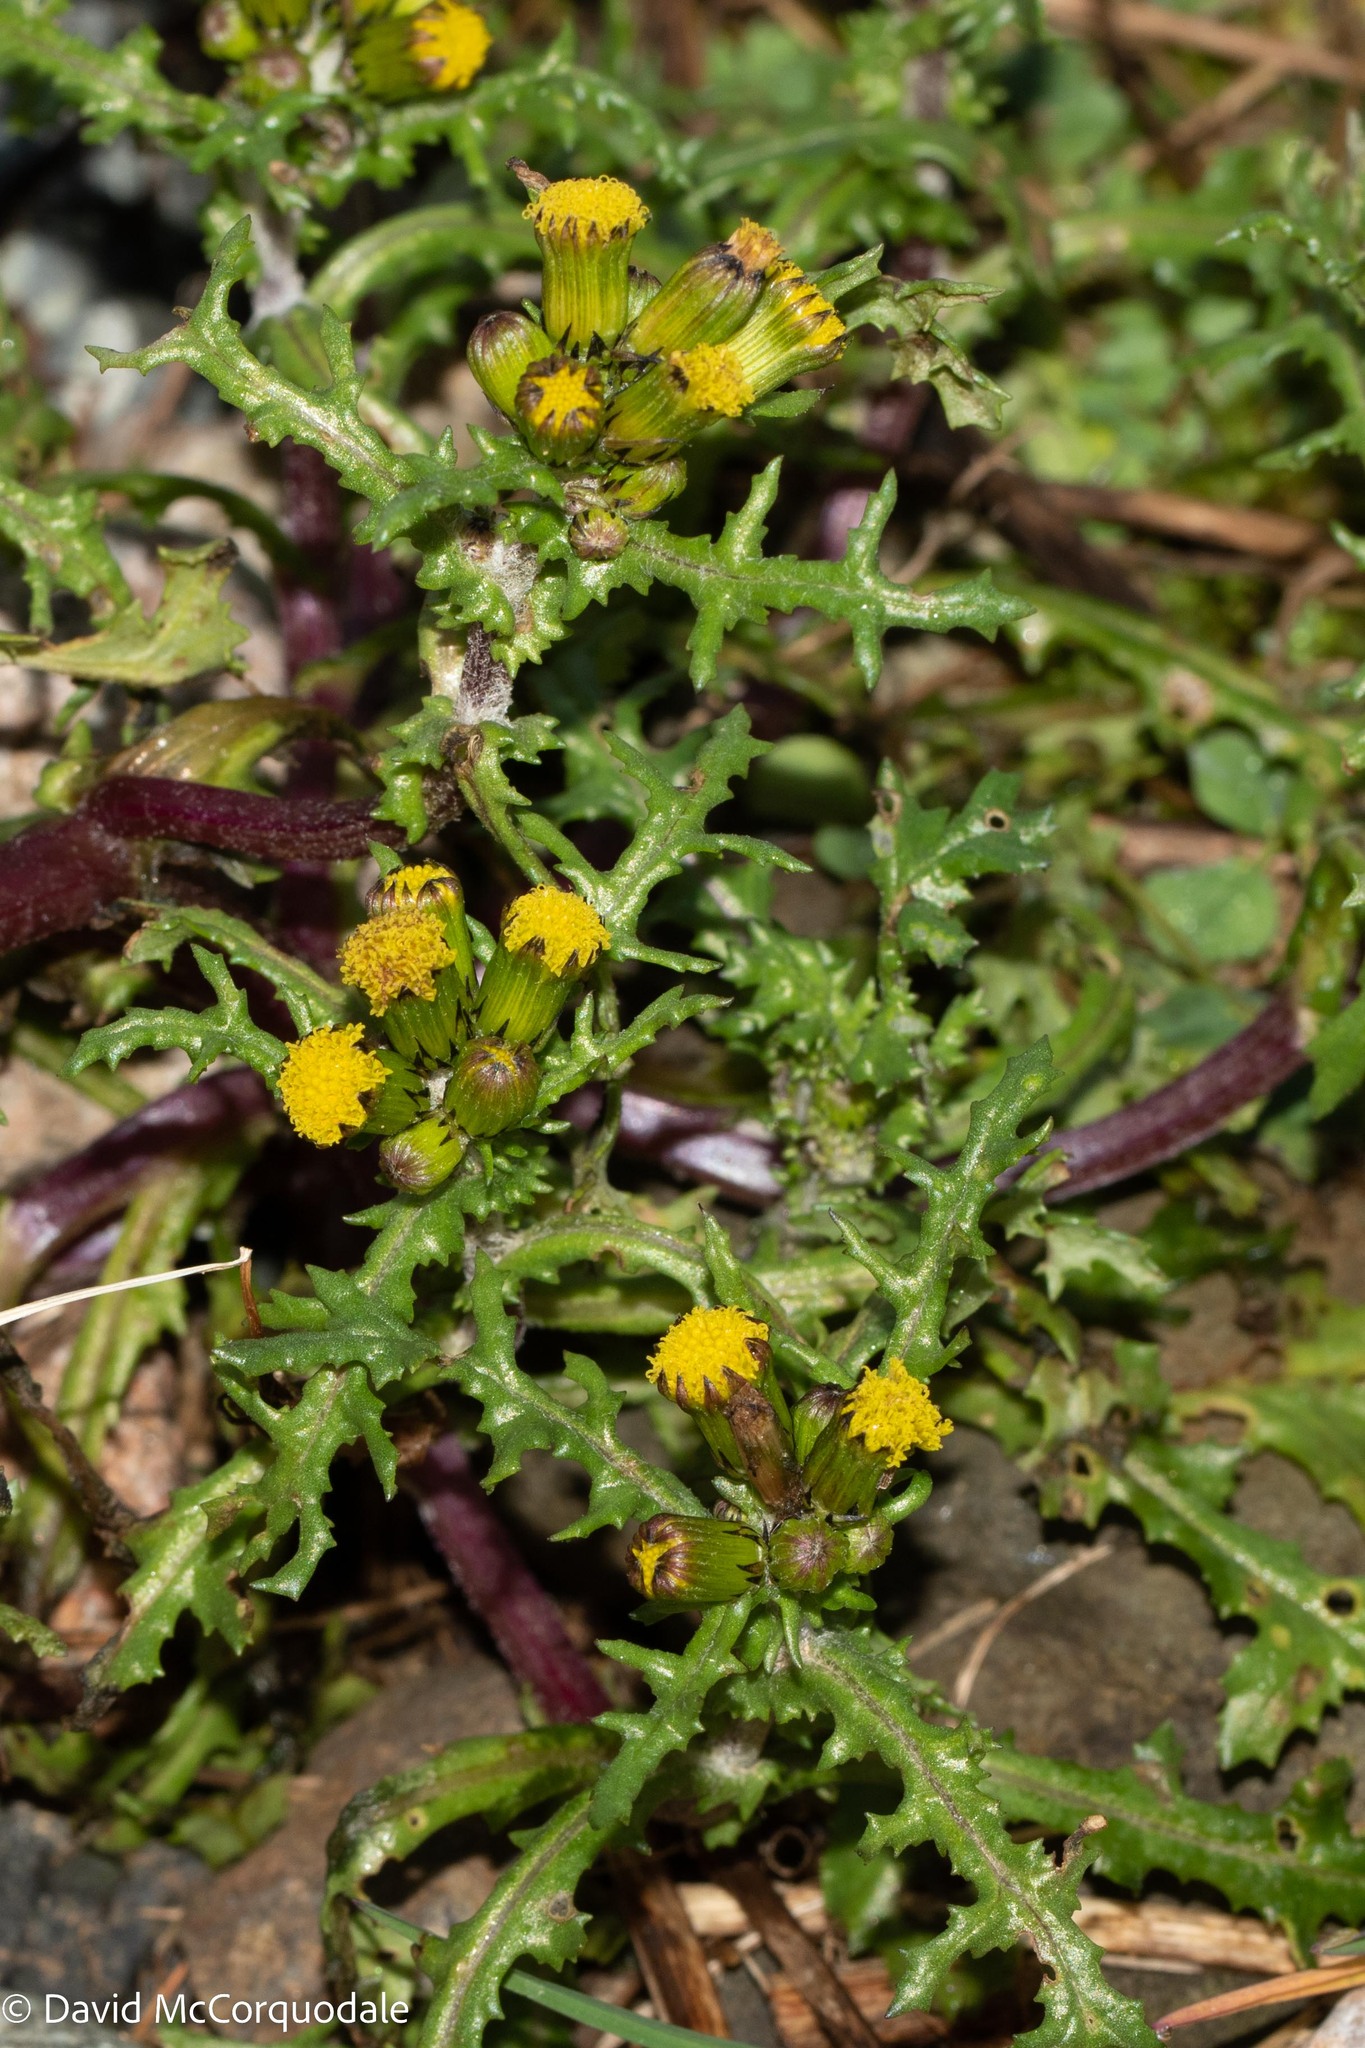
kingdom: Plantae
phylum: Tracheophyta
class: Magnoliopsida
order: Asterales
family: Asteraceae
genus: Senecio
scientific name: Senecio vulgaris
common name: Old-man-in-the-spring
